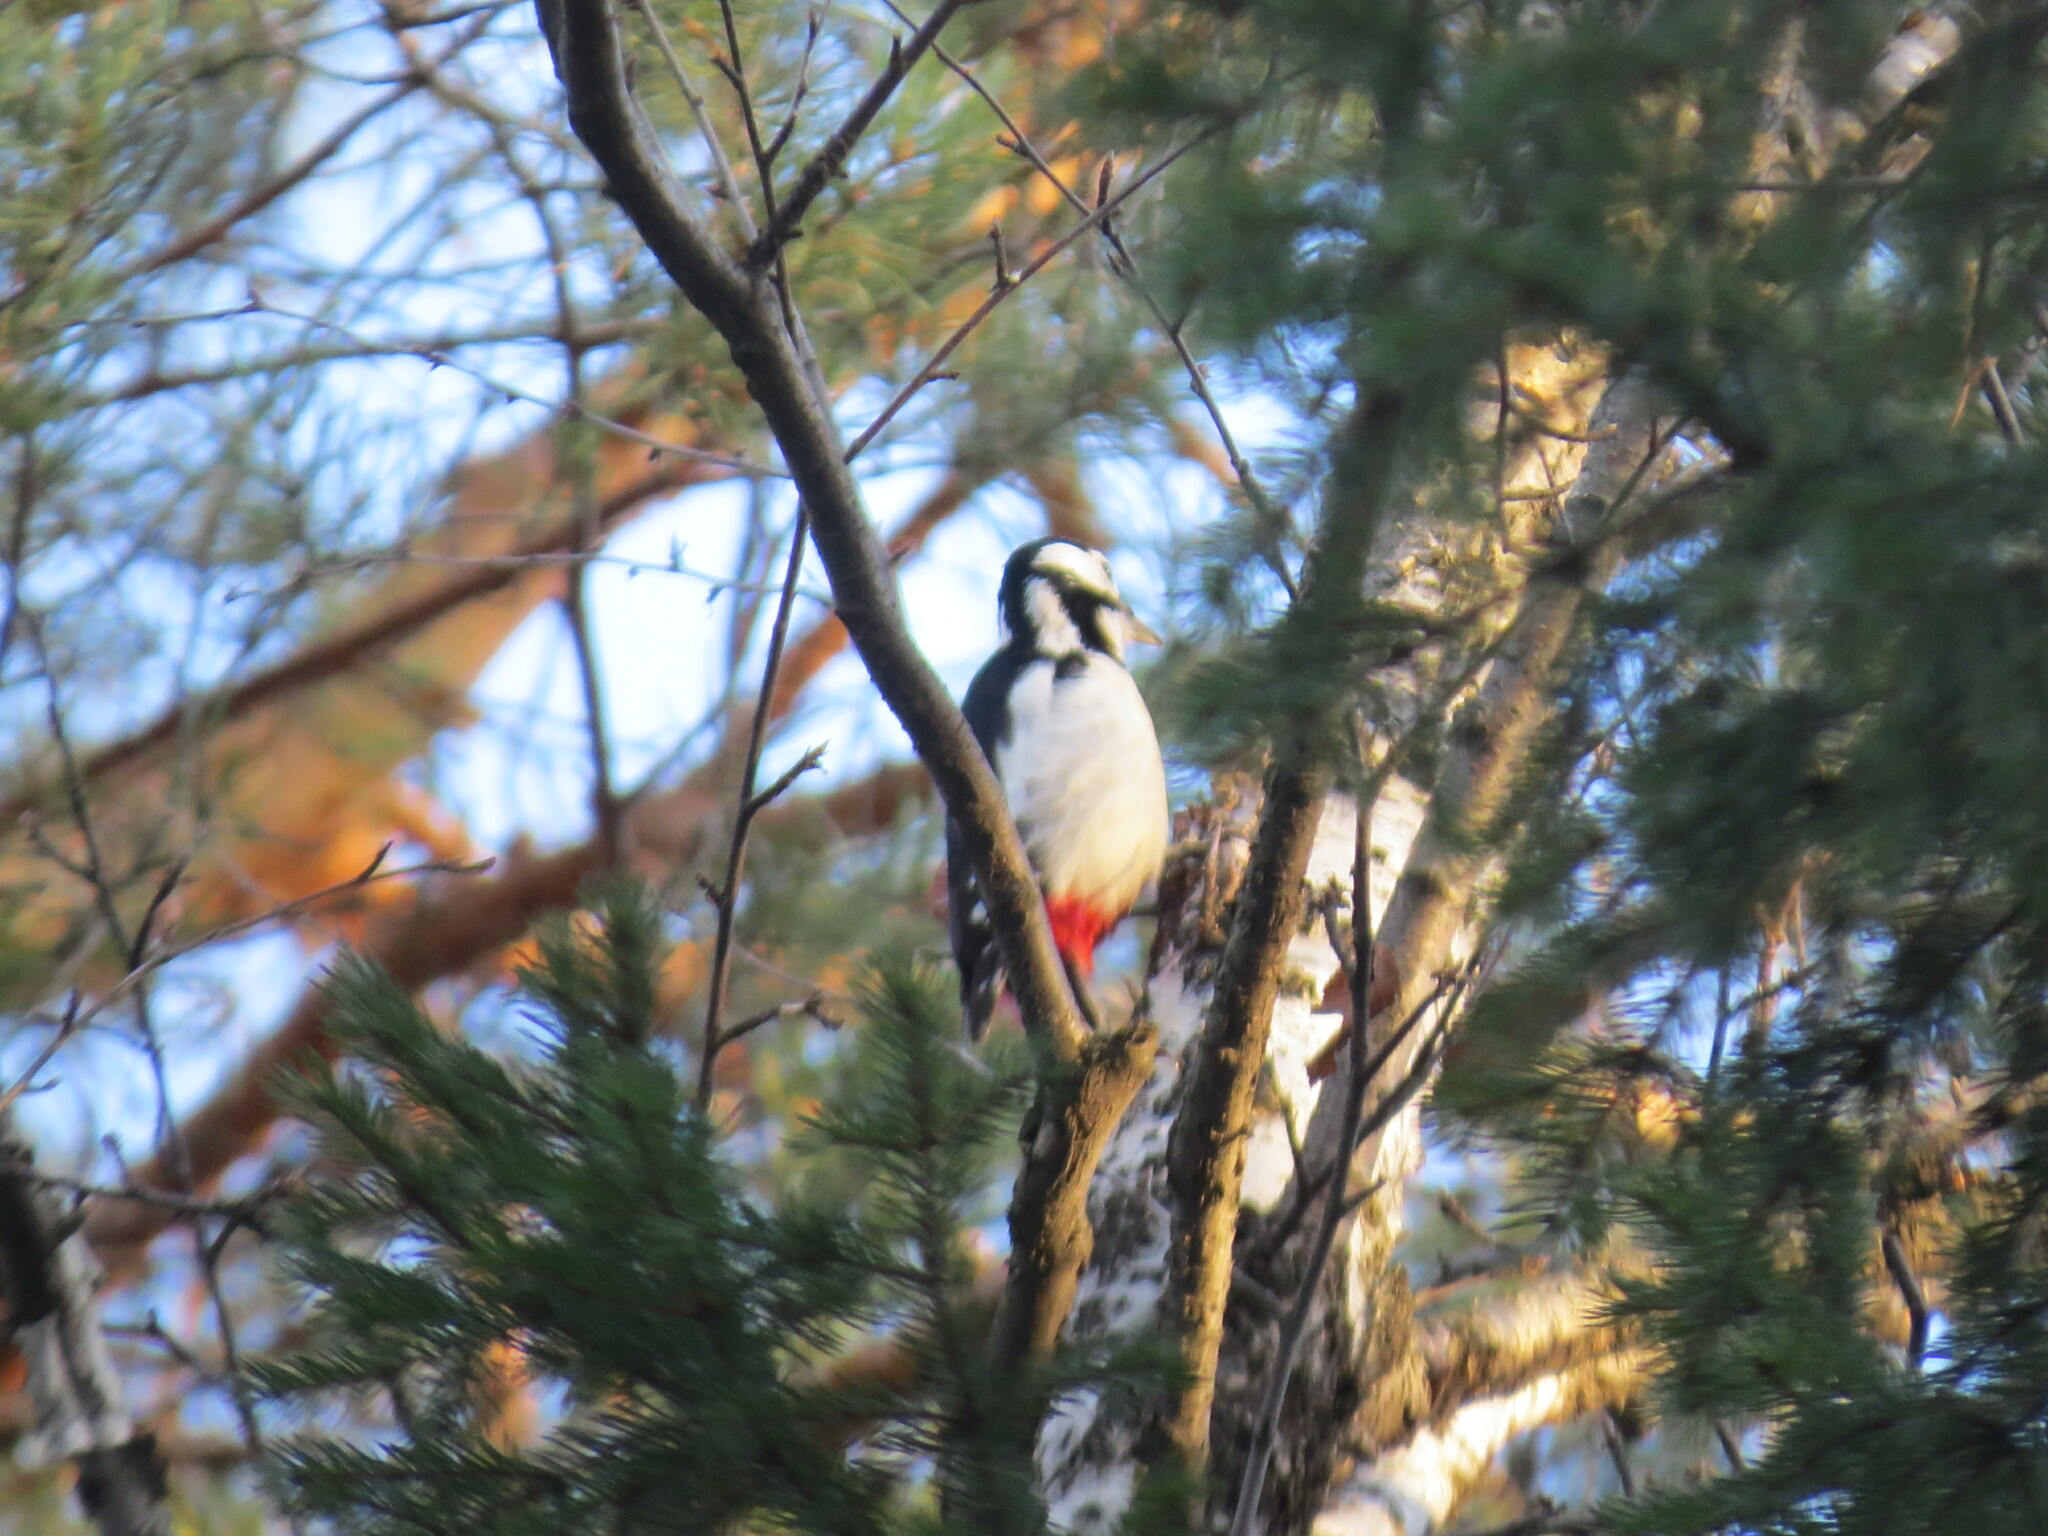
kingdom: Animalia
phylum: Chordata
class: Aves
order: Piciformes
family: Picidae
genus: Dendrocopos
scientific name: Dendrocopos major
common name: Great spotted woodpecker
